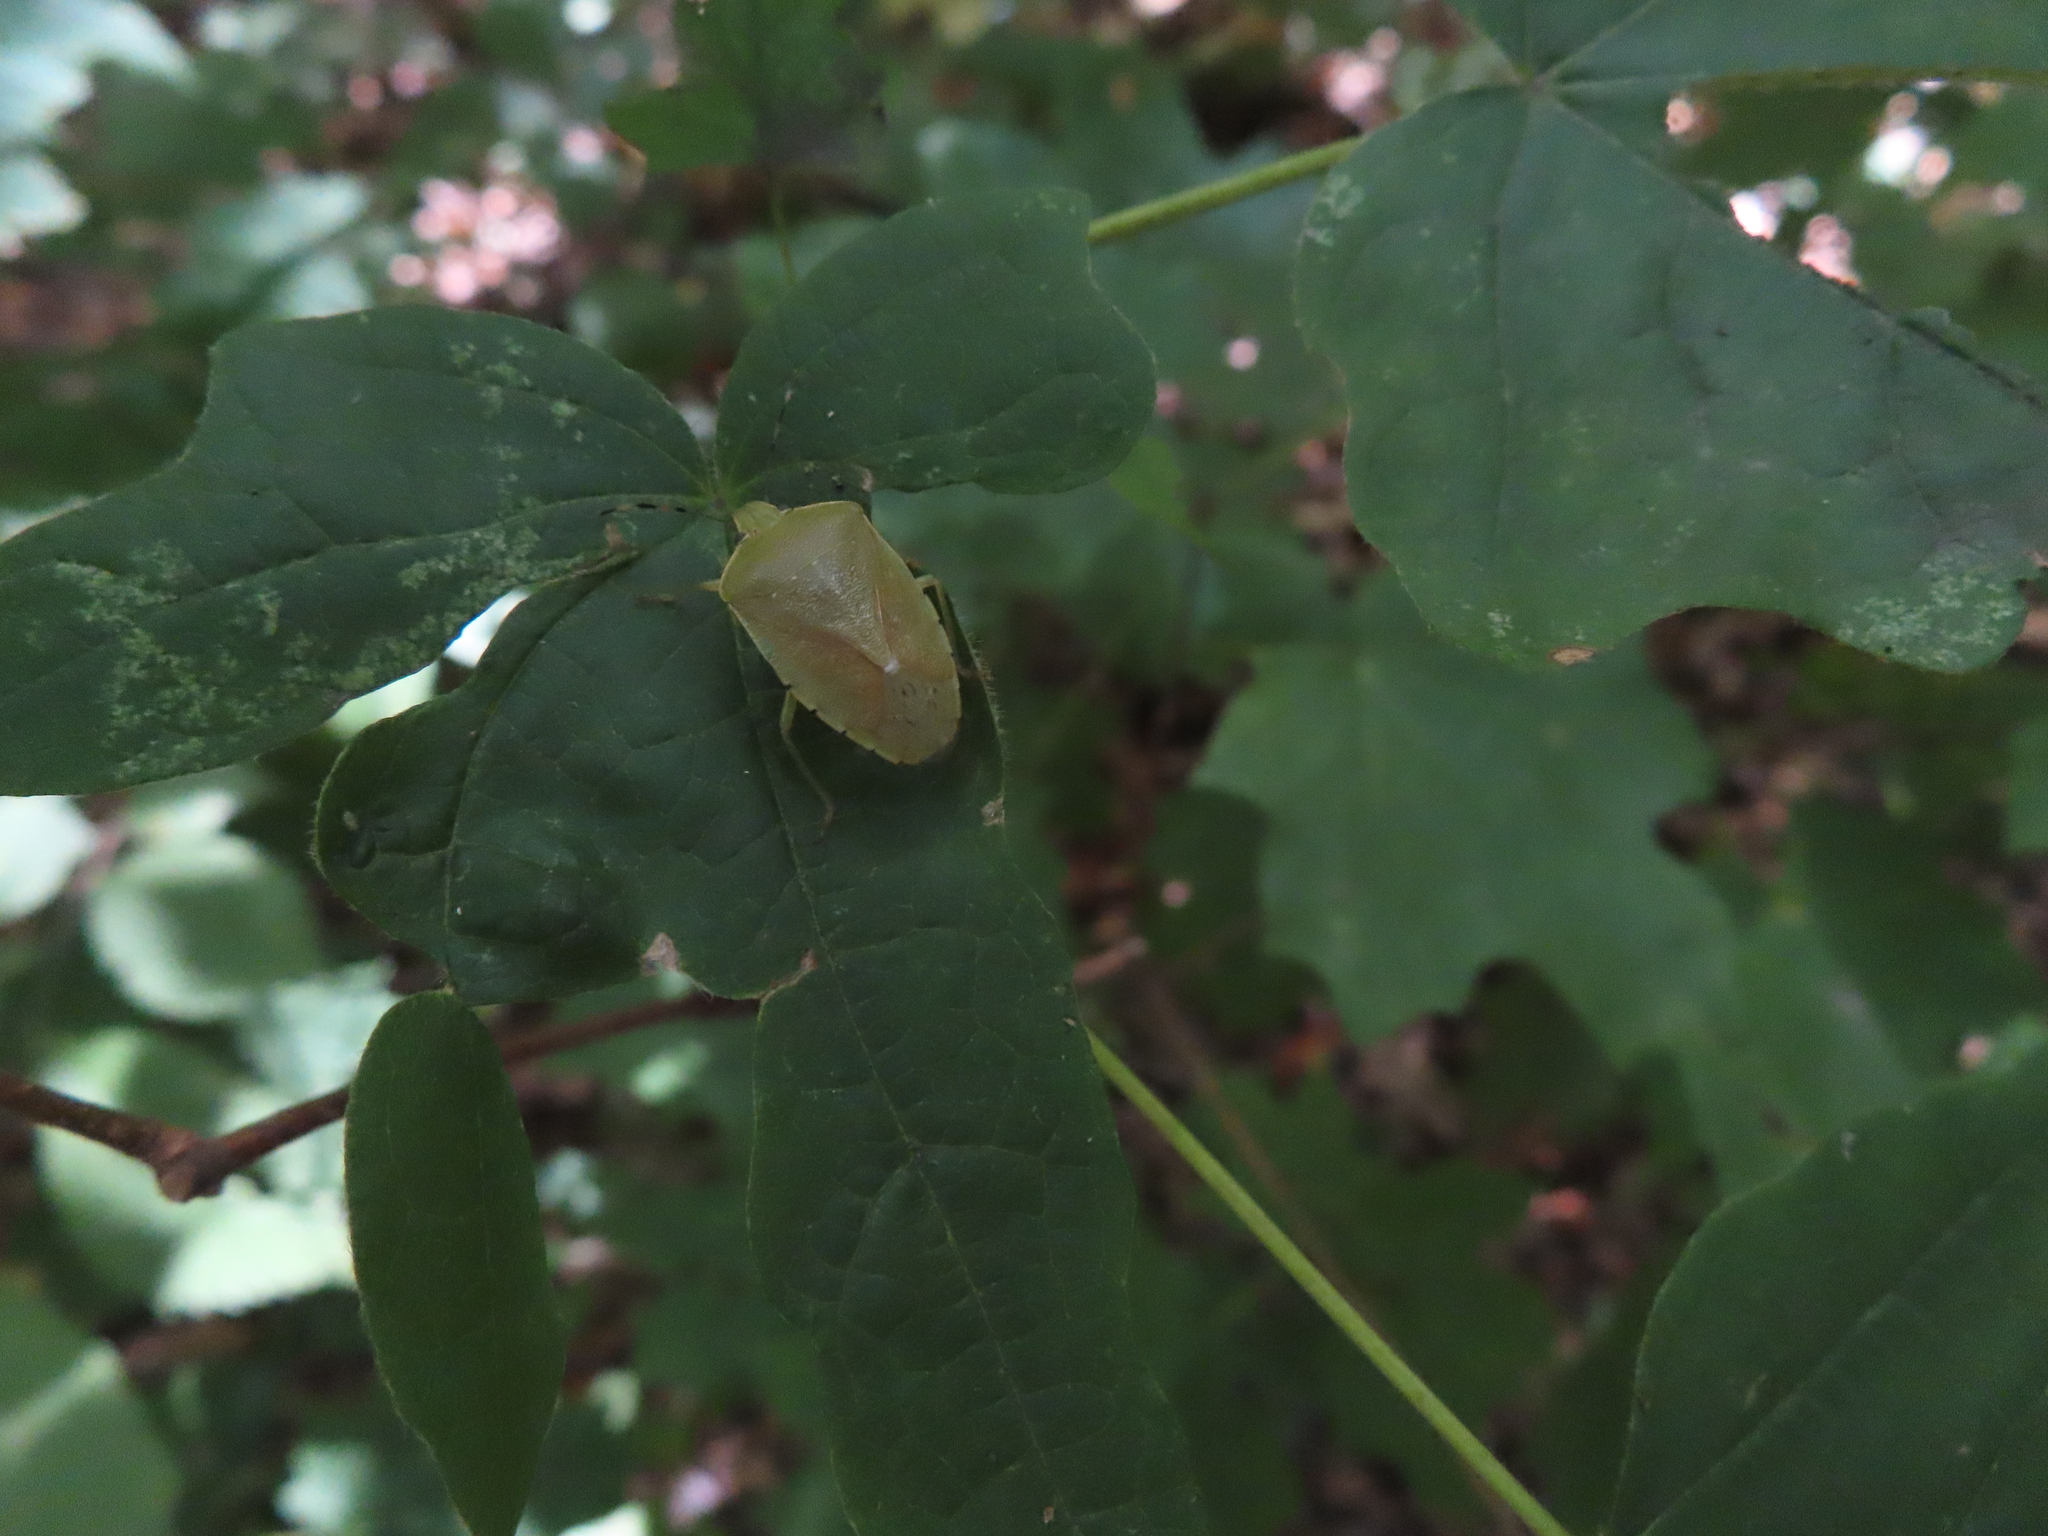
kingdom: Animalia
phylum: Arthropoda
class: Insecta
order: Hemiptera
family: Pentatomidae
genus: Chinavia
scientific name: Chinavia hilaris
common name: Green stink bug
